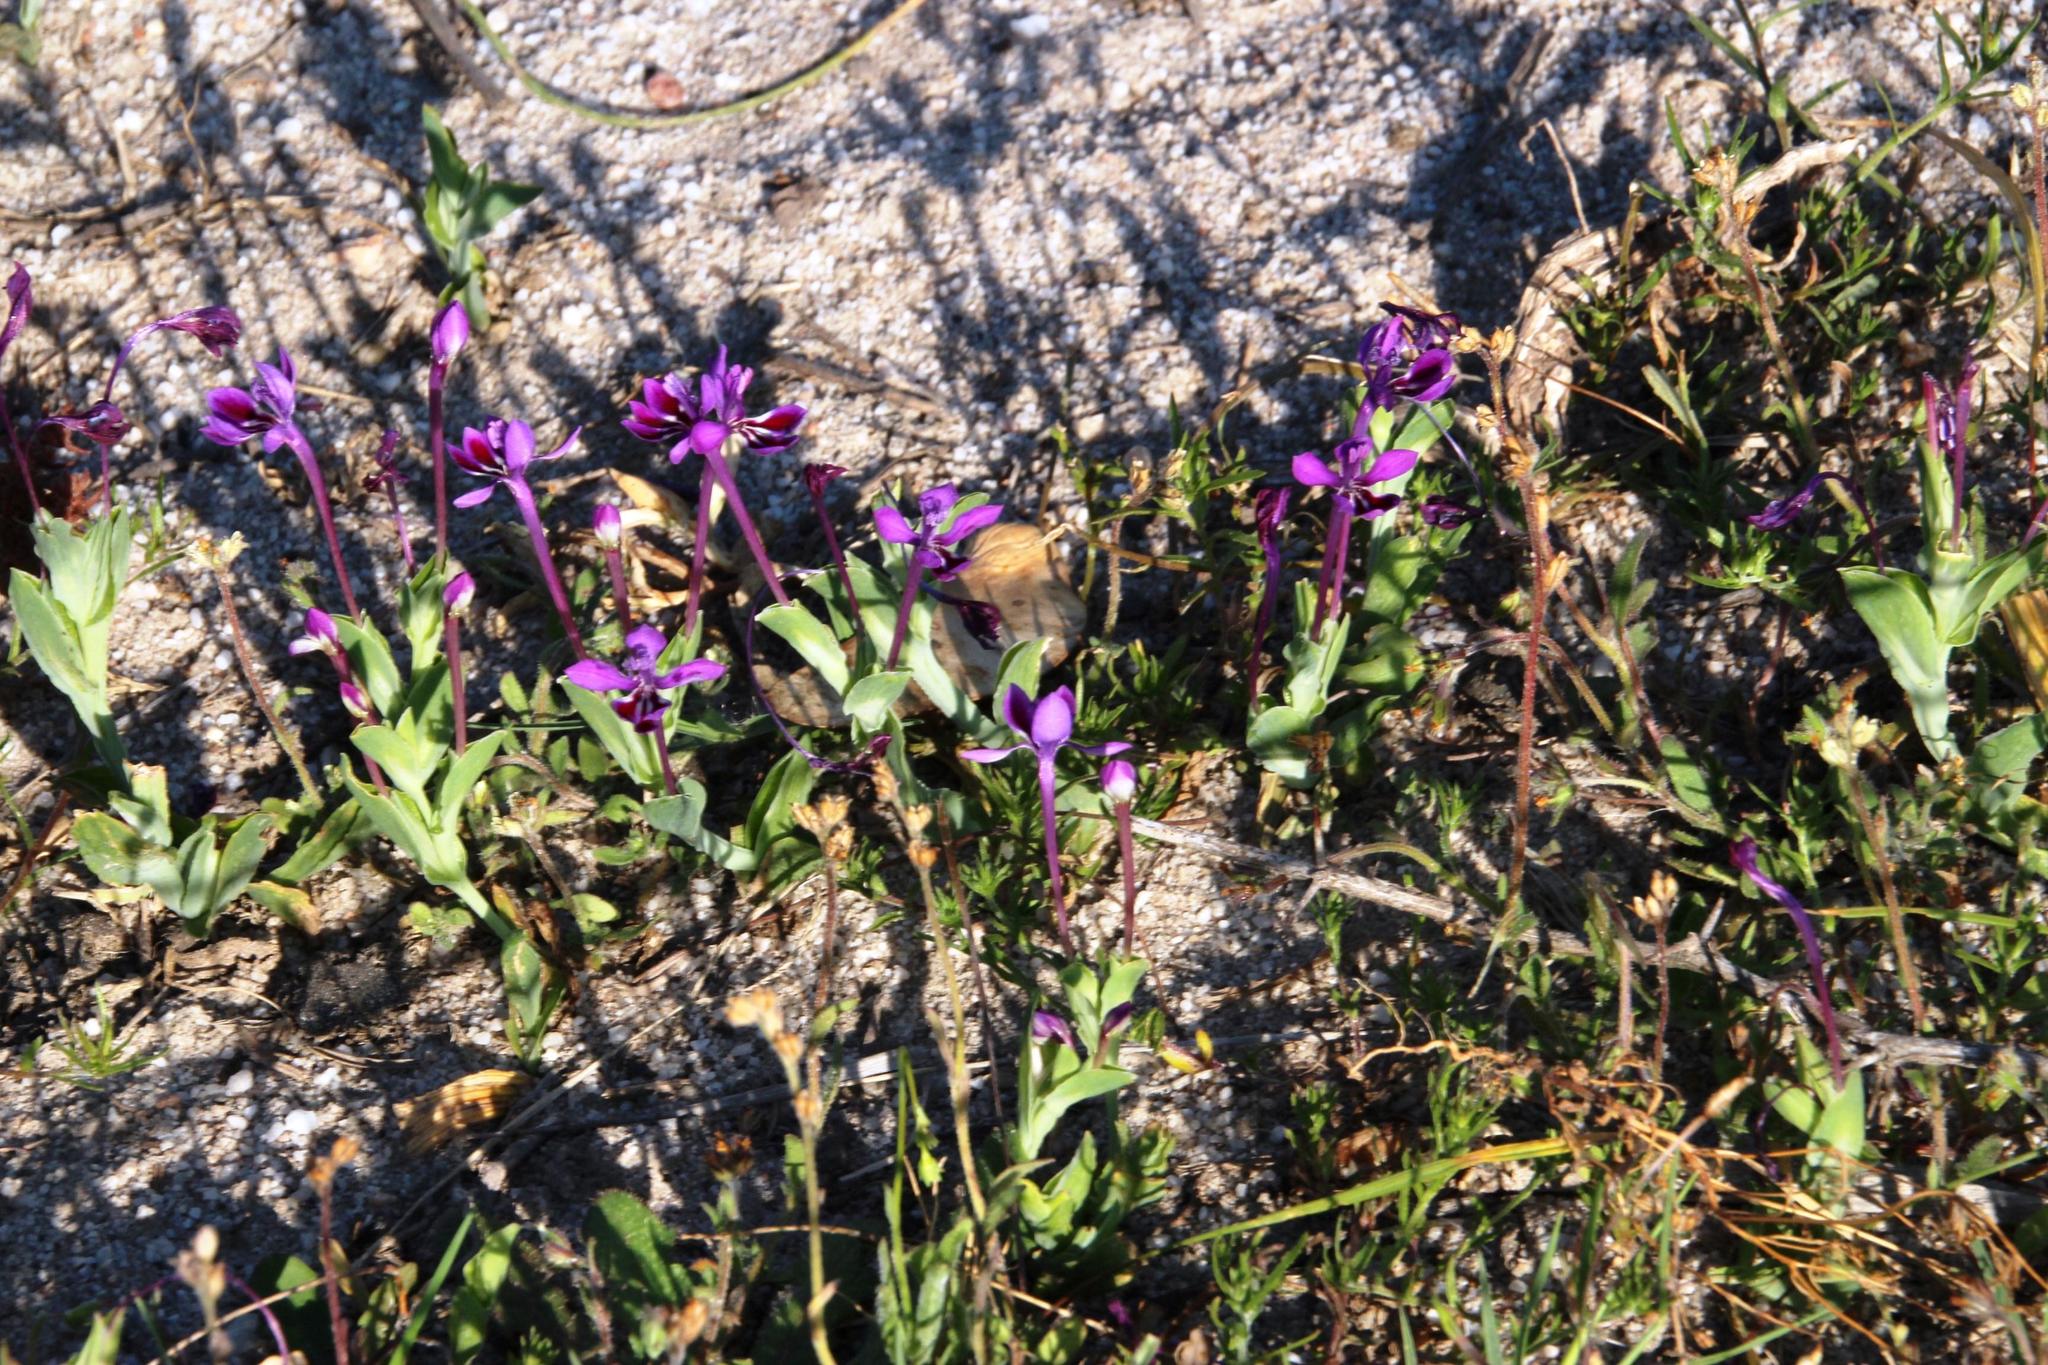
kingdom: Plantae
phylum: Tracheophyta
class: Liliopsida
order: Asparagales
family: Iridaceae
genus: Lapeirousia
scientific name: Lapeirousia jacquinii
